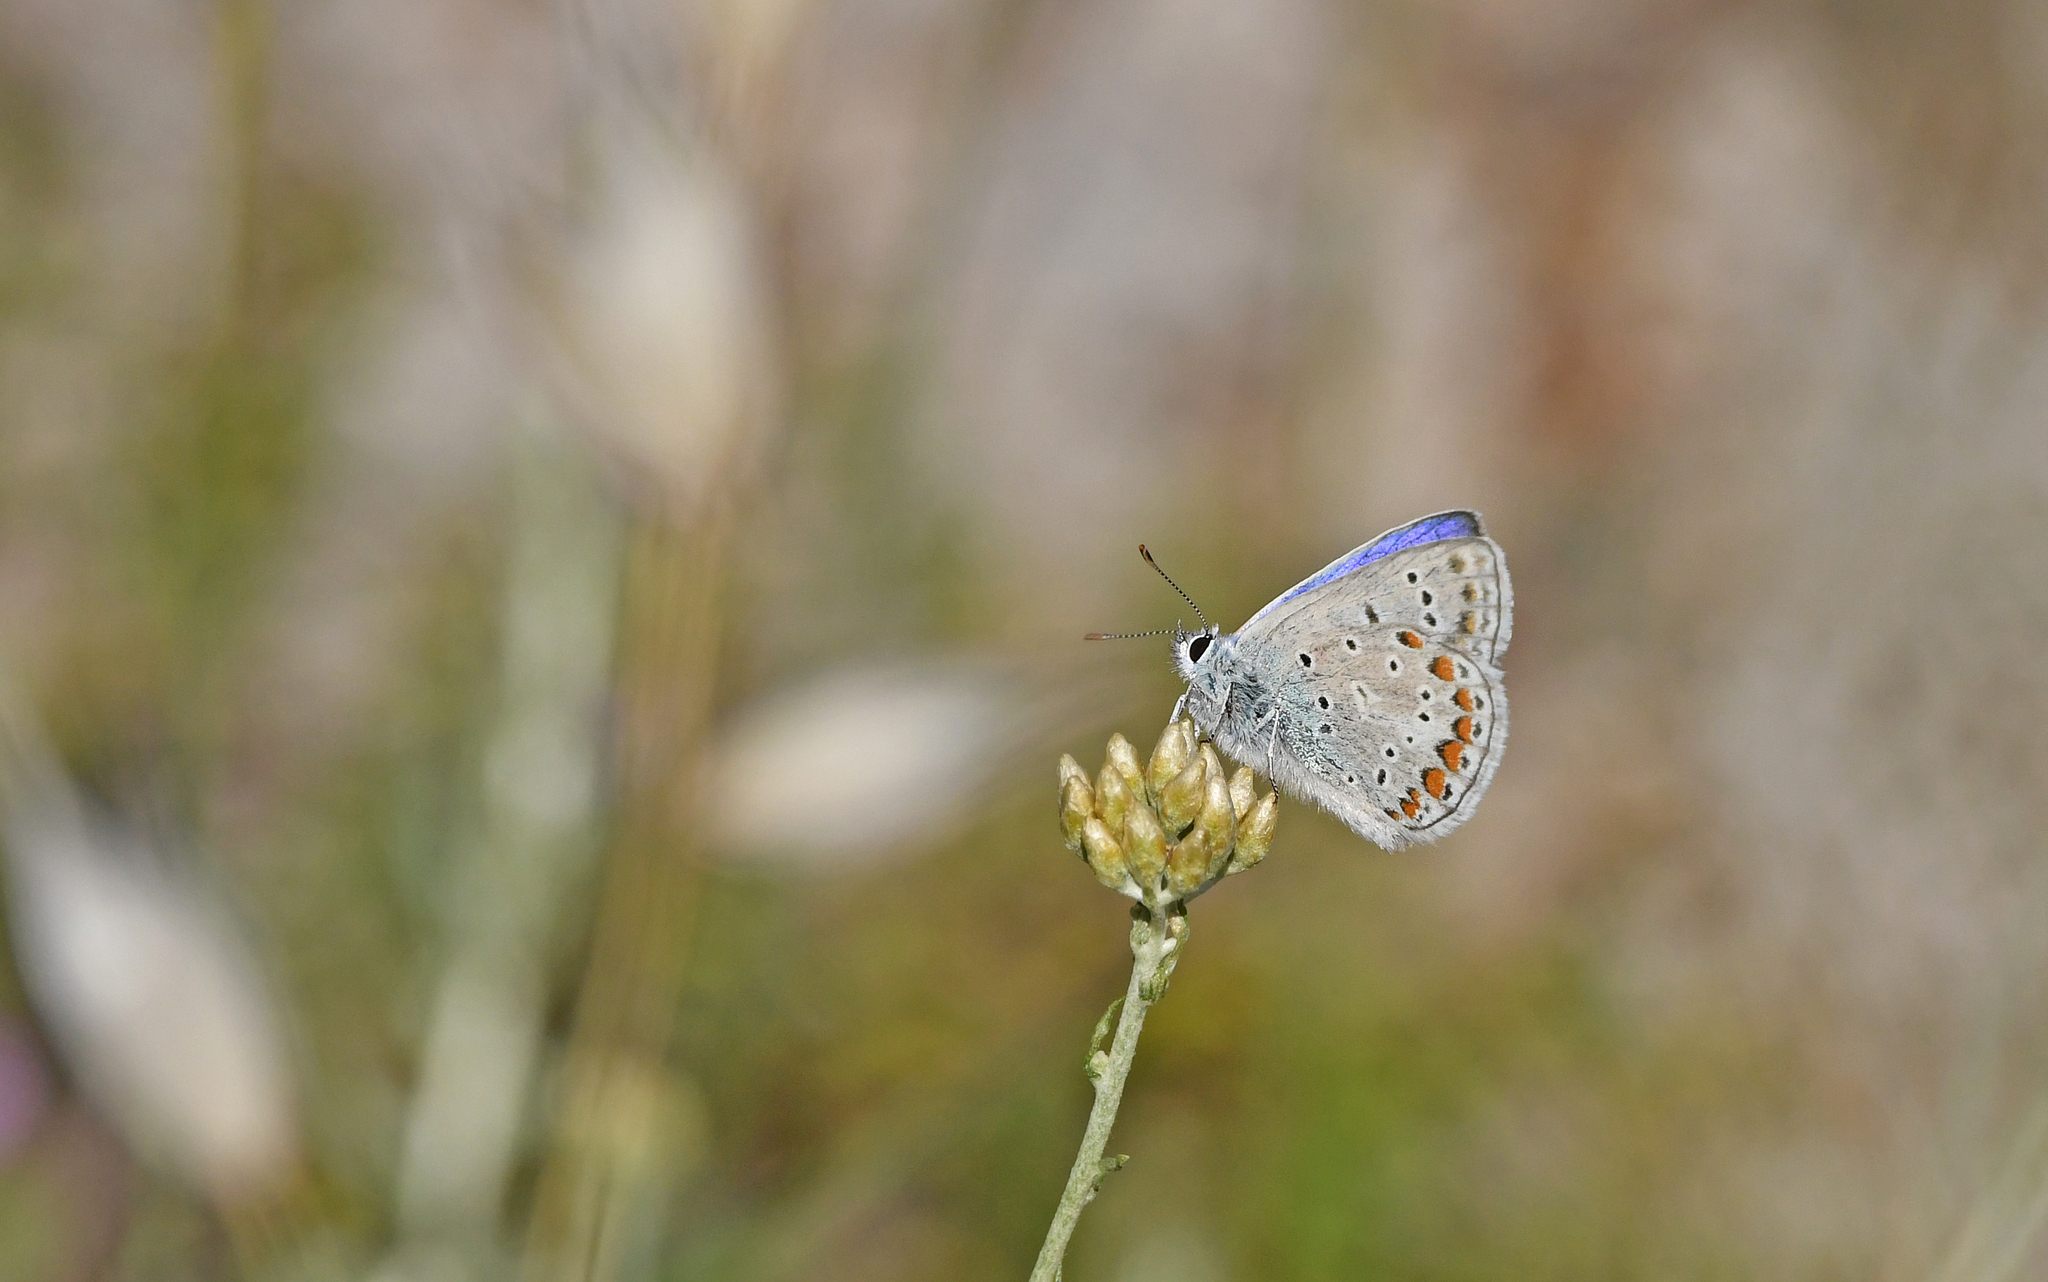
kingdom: Animalia
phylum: Arthropoda
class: Insecta
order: Lepidoptera
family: Lycaenidae
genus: Polyommatus
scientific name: Polyommatus celina
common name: Austaut's blue
